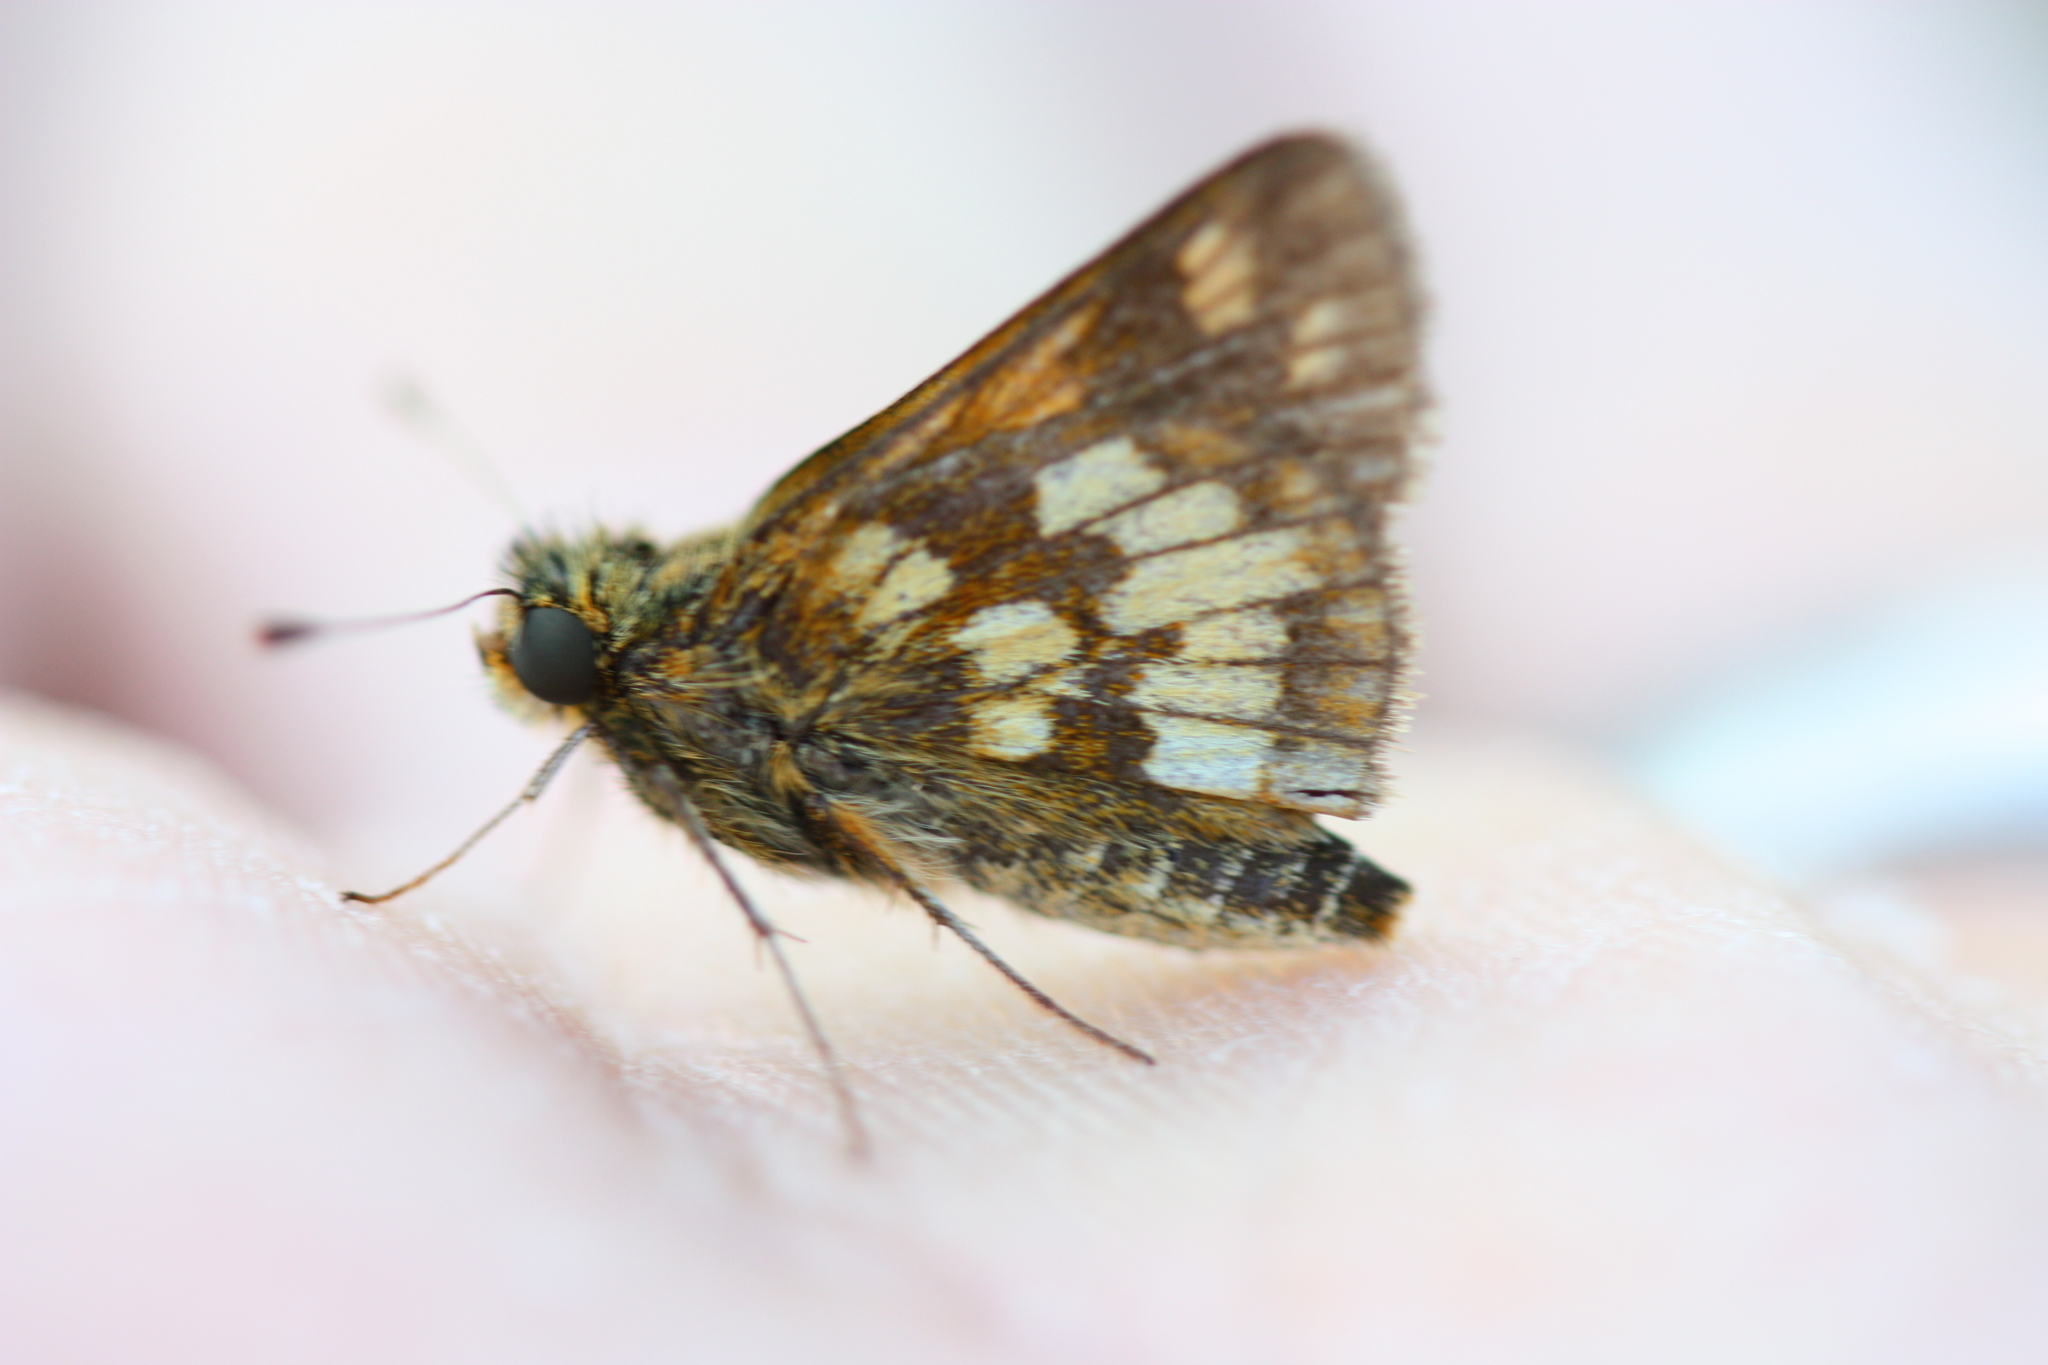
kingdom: Animalia
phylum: Arthropoda
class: Insecta
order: Lepidoptera
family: Hesperiidae
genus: Polites
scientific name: Polites coras
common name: Peck's skipper
